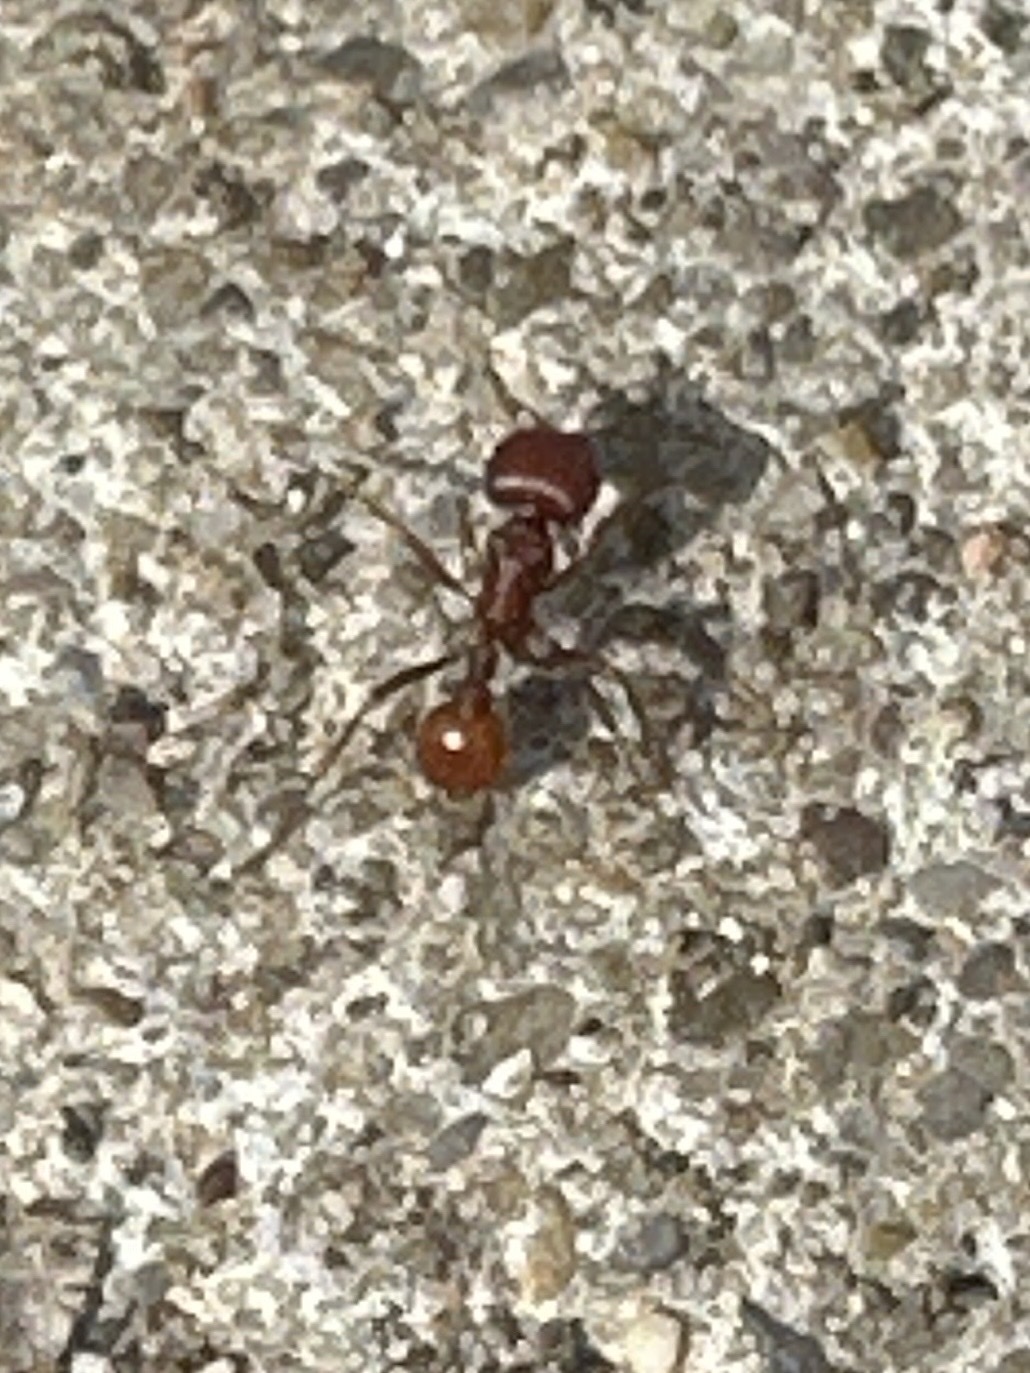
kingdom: Animalia
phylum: Arthropoda
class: Insecta
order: Hymenoptera
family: Formicidae
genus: Pogonomyrmex
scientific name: Pogonomyrmex barbatus
